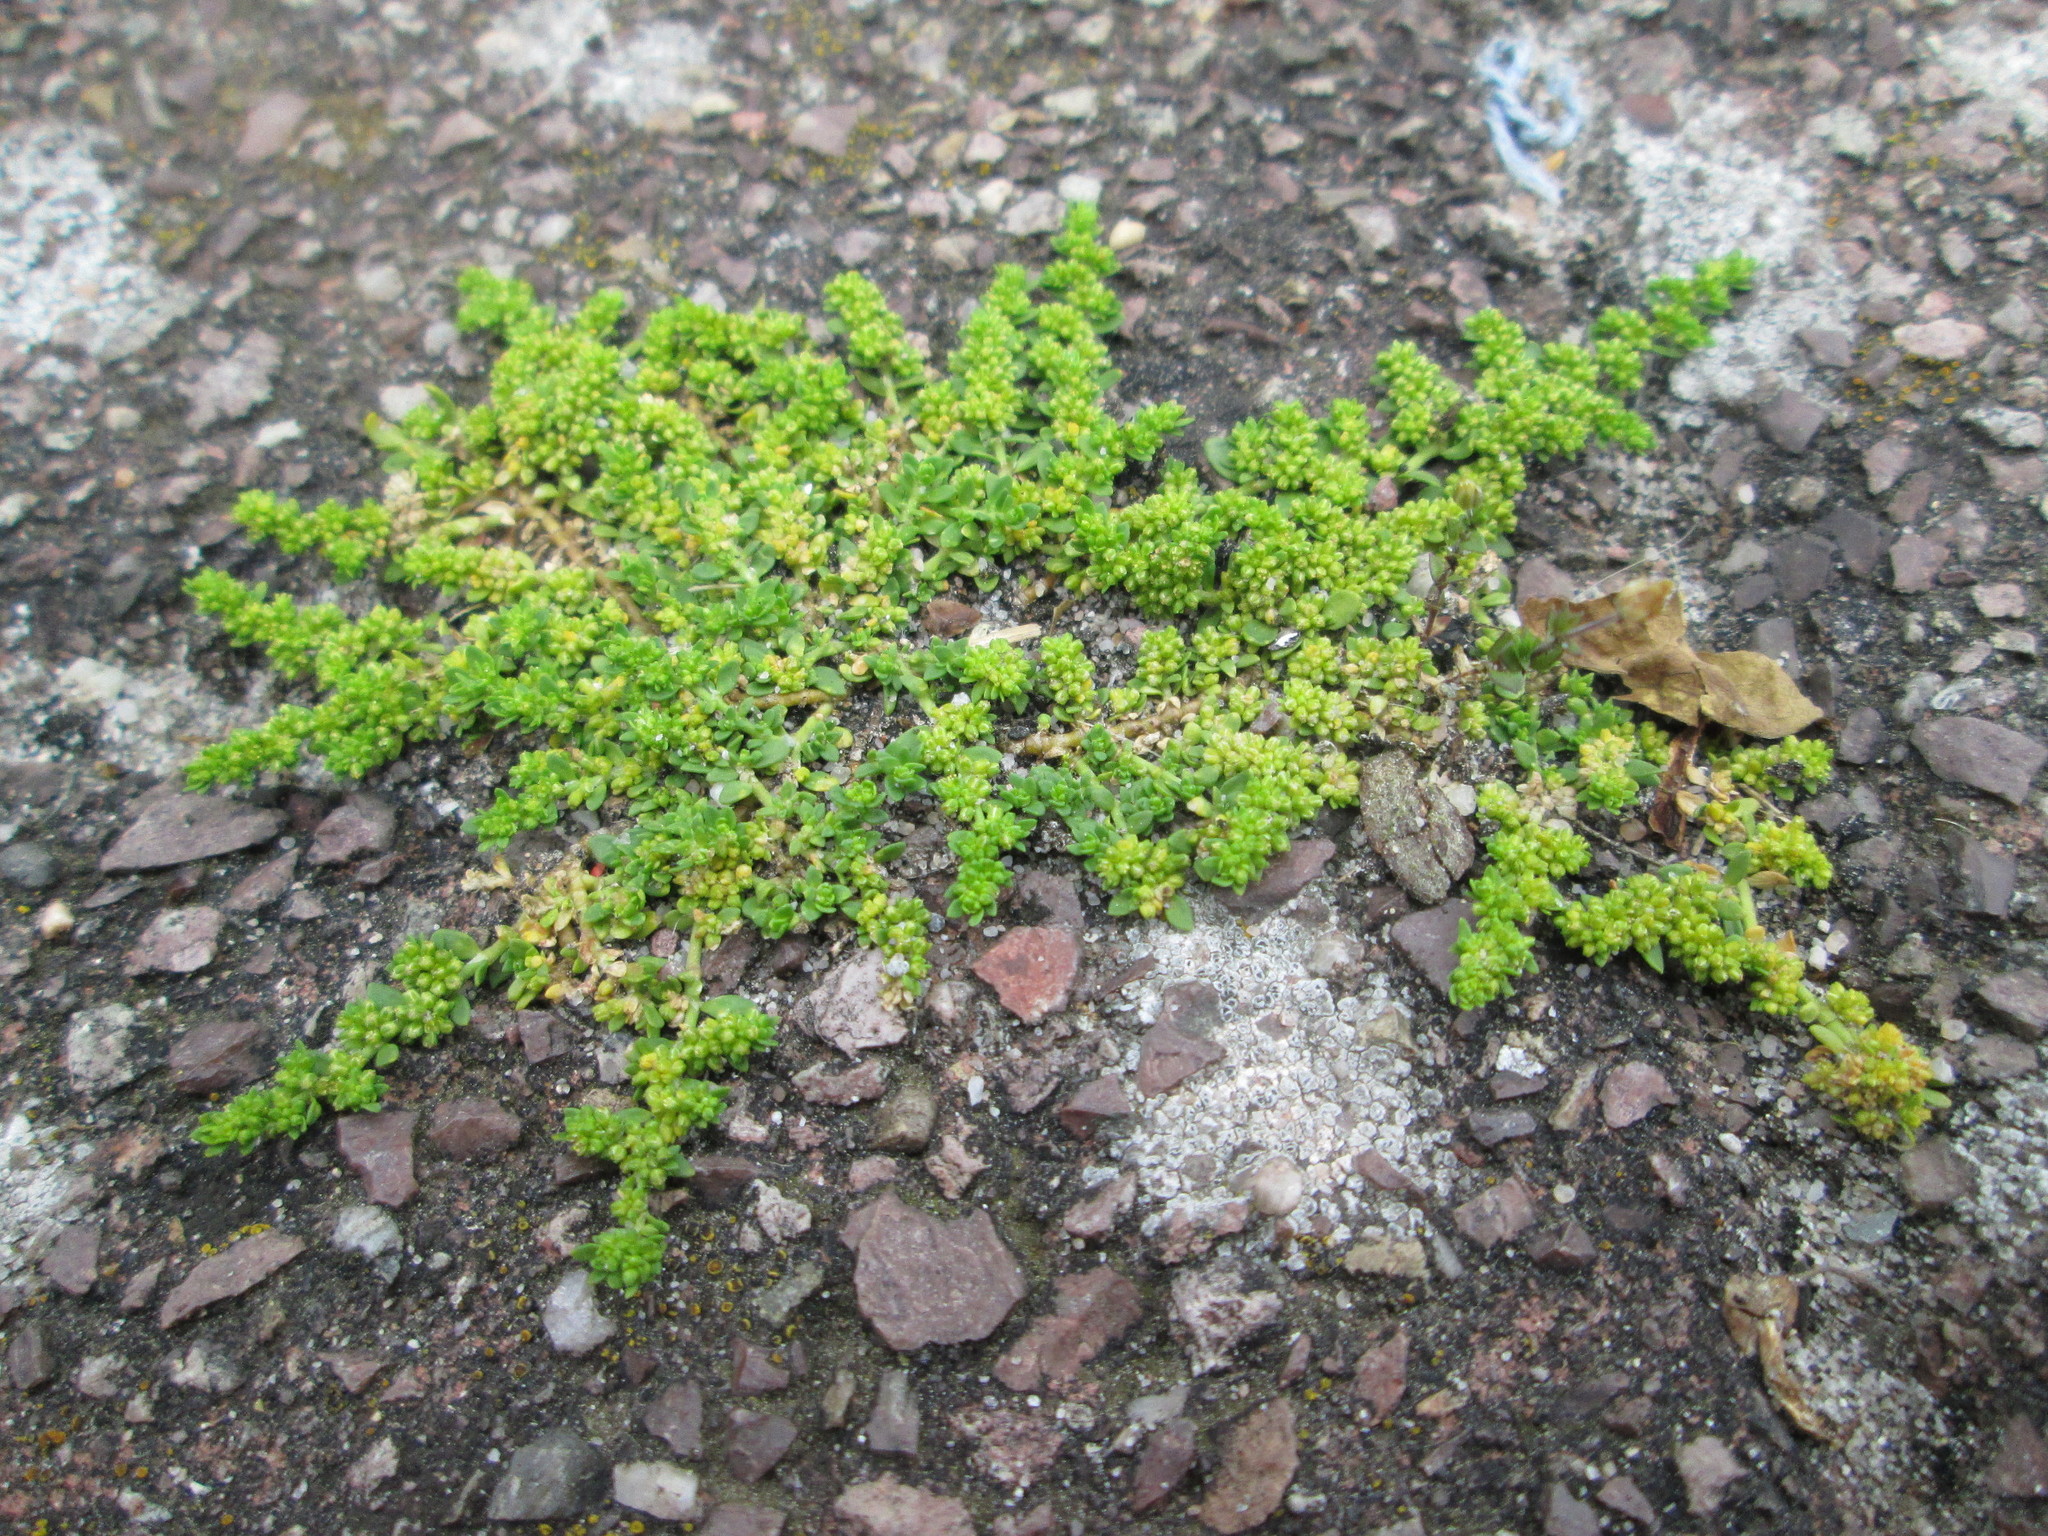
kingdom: Plantae
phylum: Tracheophyta
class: Magnoliopsida
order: Caryophyllales
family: Caryophyllaceae
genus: Herniaria
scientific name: Herniaria glabra
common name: Smooth rupturewort
